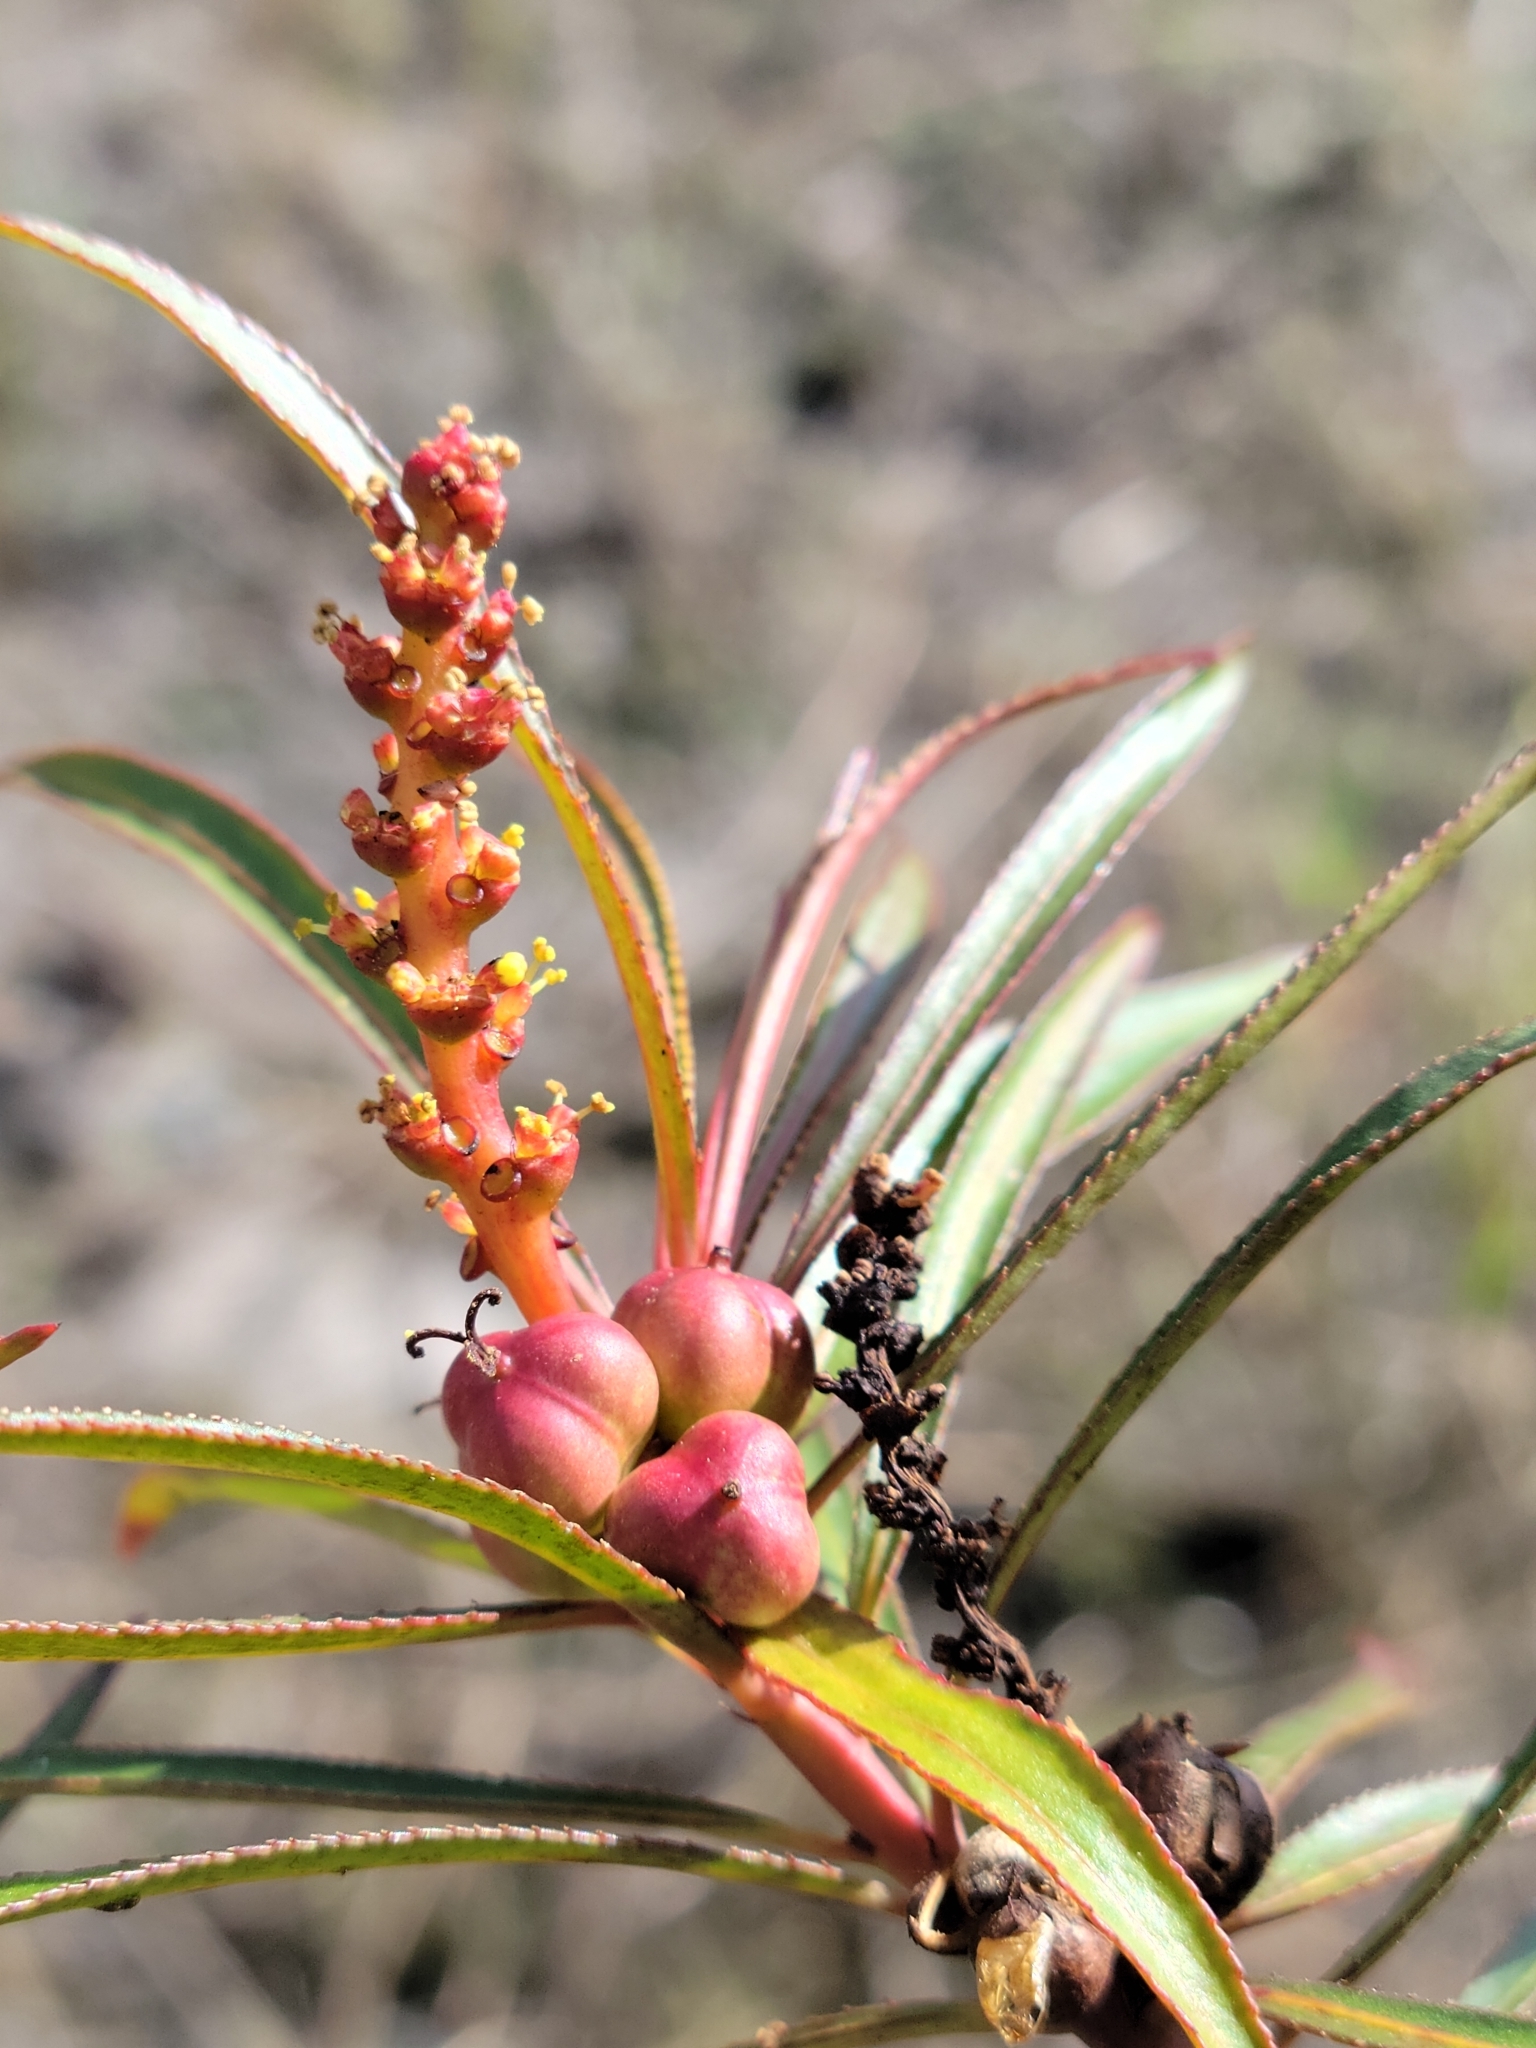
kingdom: Plantae
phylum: Tracheophyta
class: Magnoliopsida
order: Malpighiales
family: Euphorbiaceae
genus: Stillingia
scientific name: Stillingia aquatica
